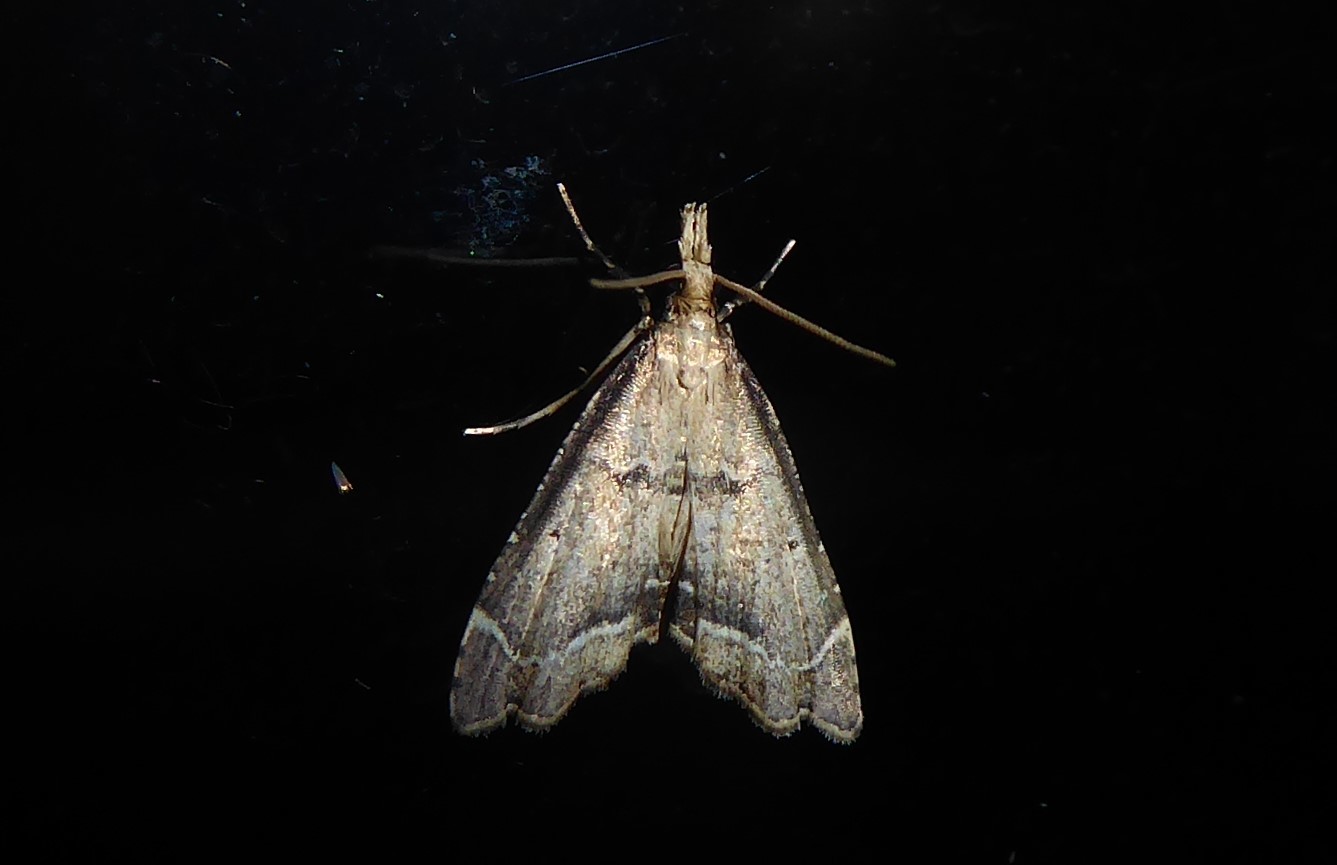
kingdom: Animalia
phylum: Arthropoda
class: Insecta
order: Lepidoptera
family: Crambidae
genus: Diplopseustis
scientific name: Diplopseustis perieresalis
